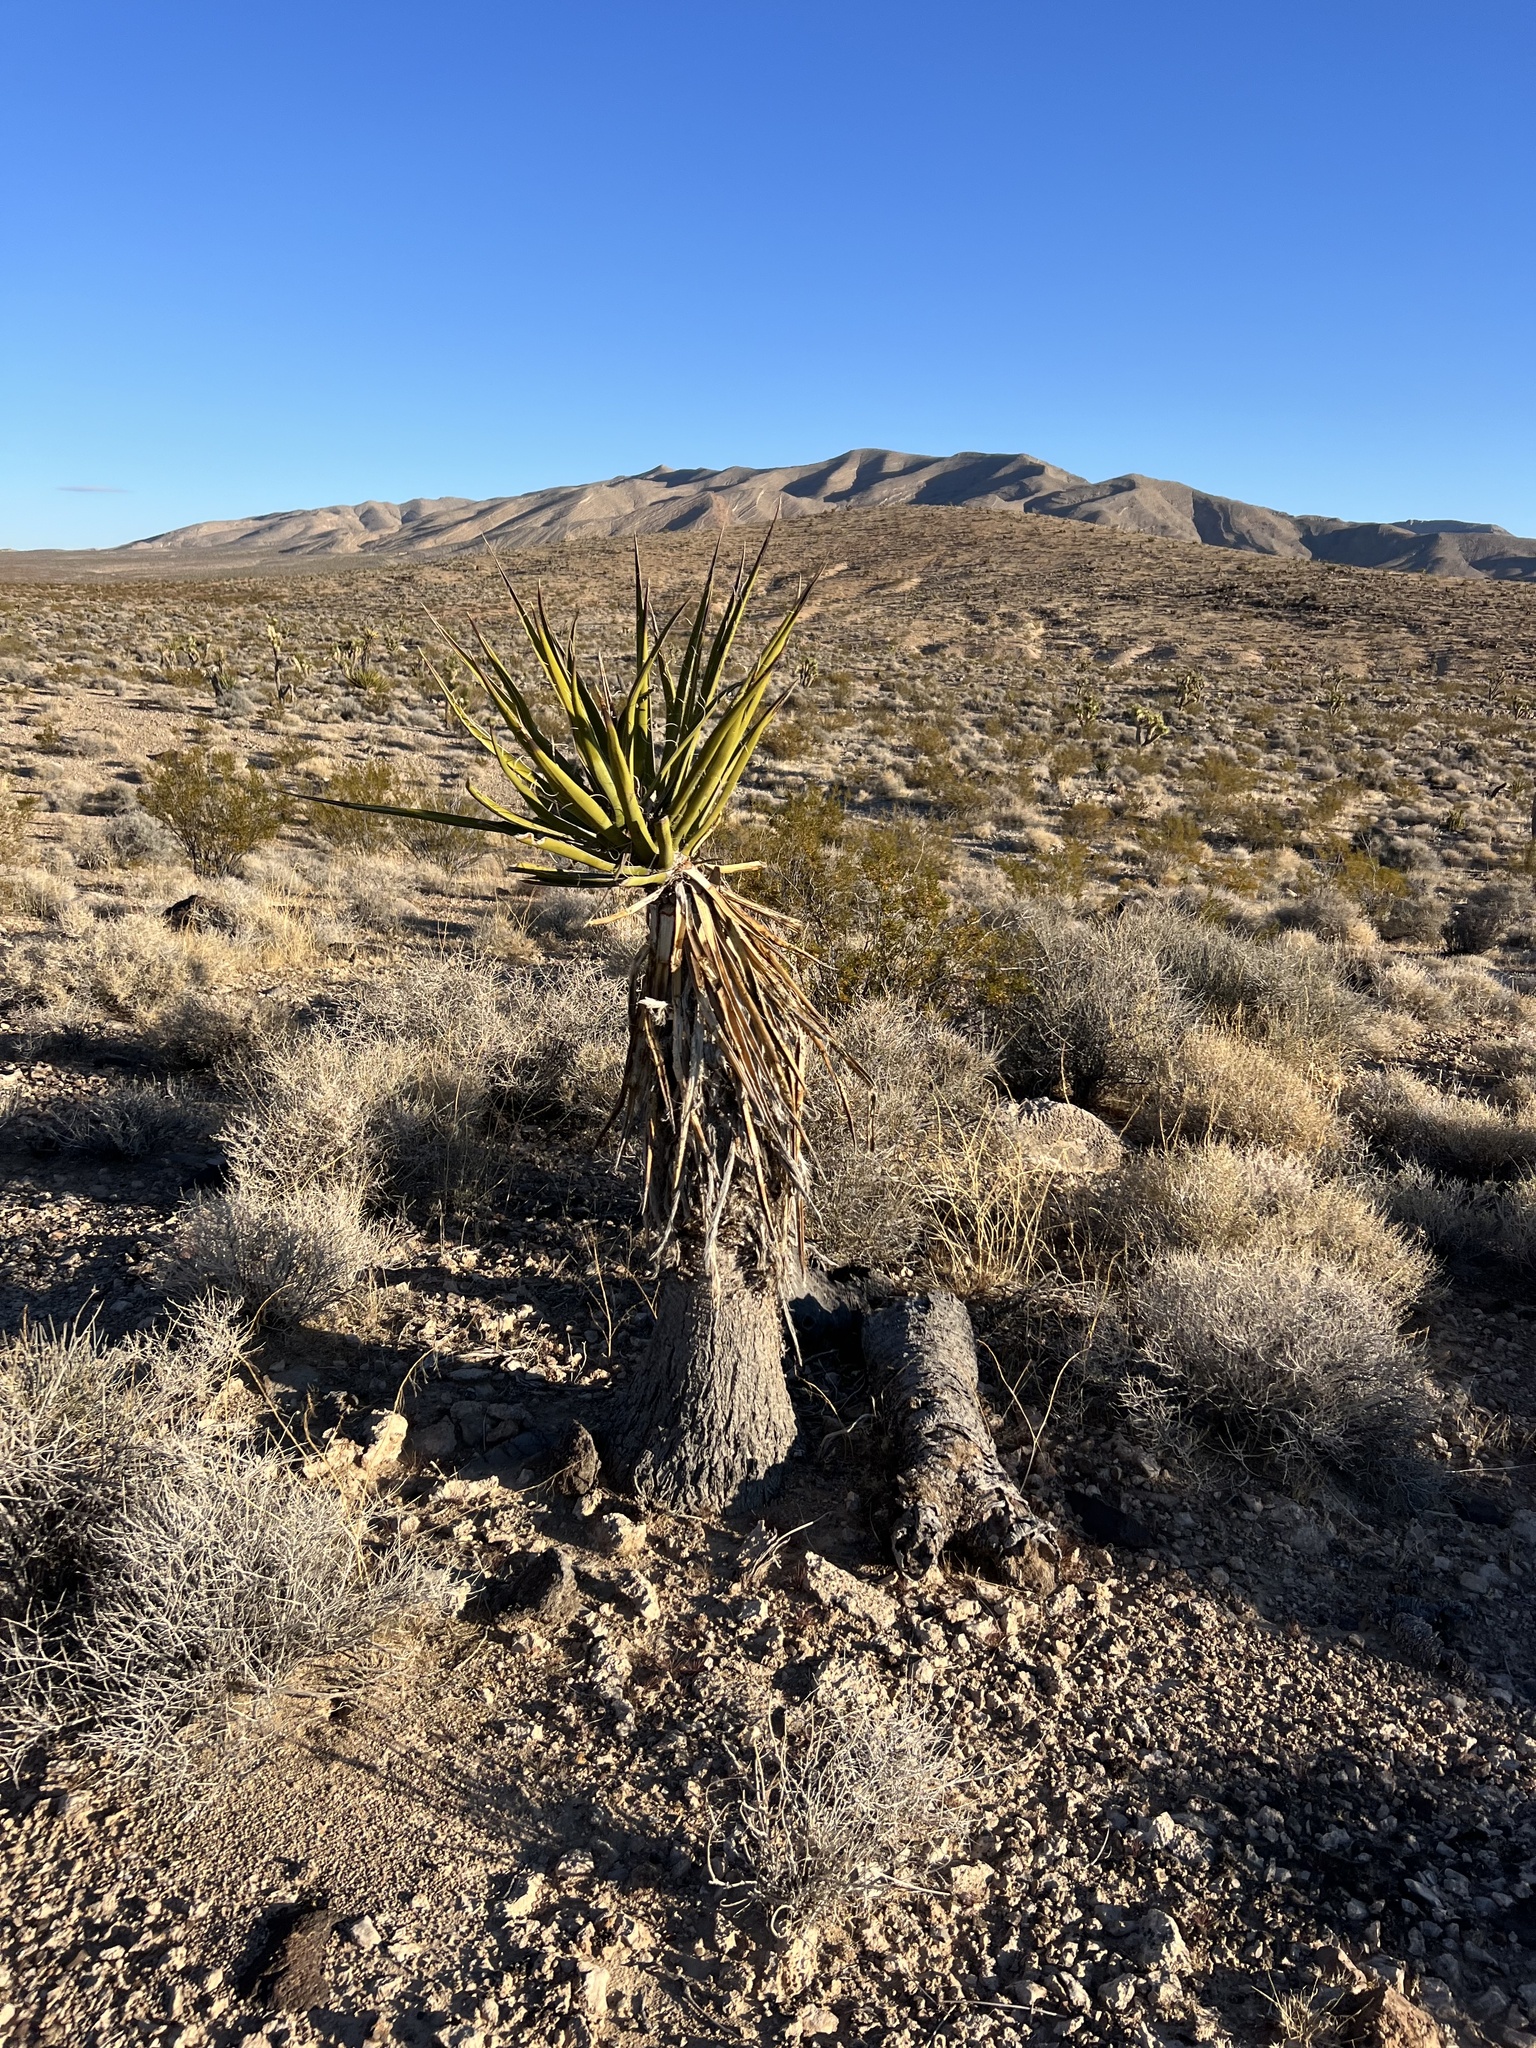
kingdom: Plantae
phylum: Tracheophyta
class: Liliopsida
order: Asparagales
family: Asparagaceae
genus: Yucca
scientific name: Yucca schidigera
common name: Mojave yucca
